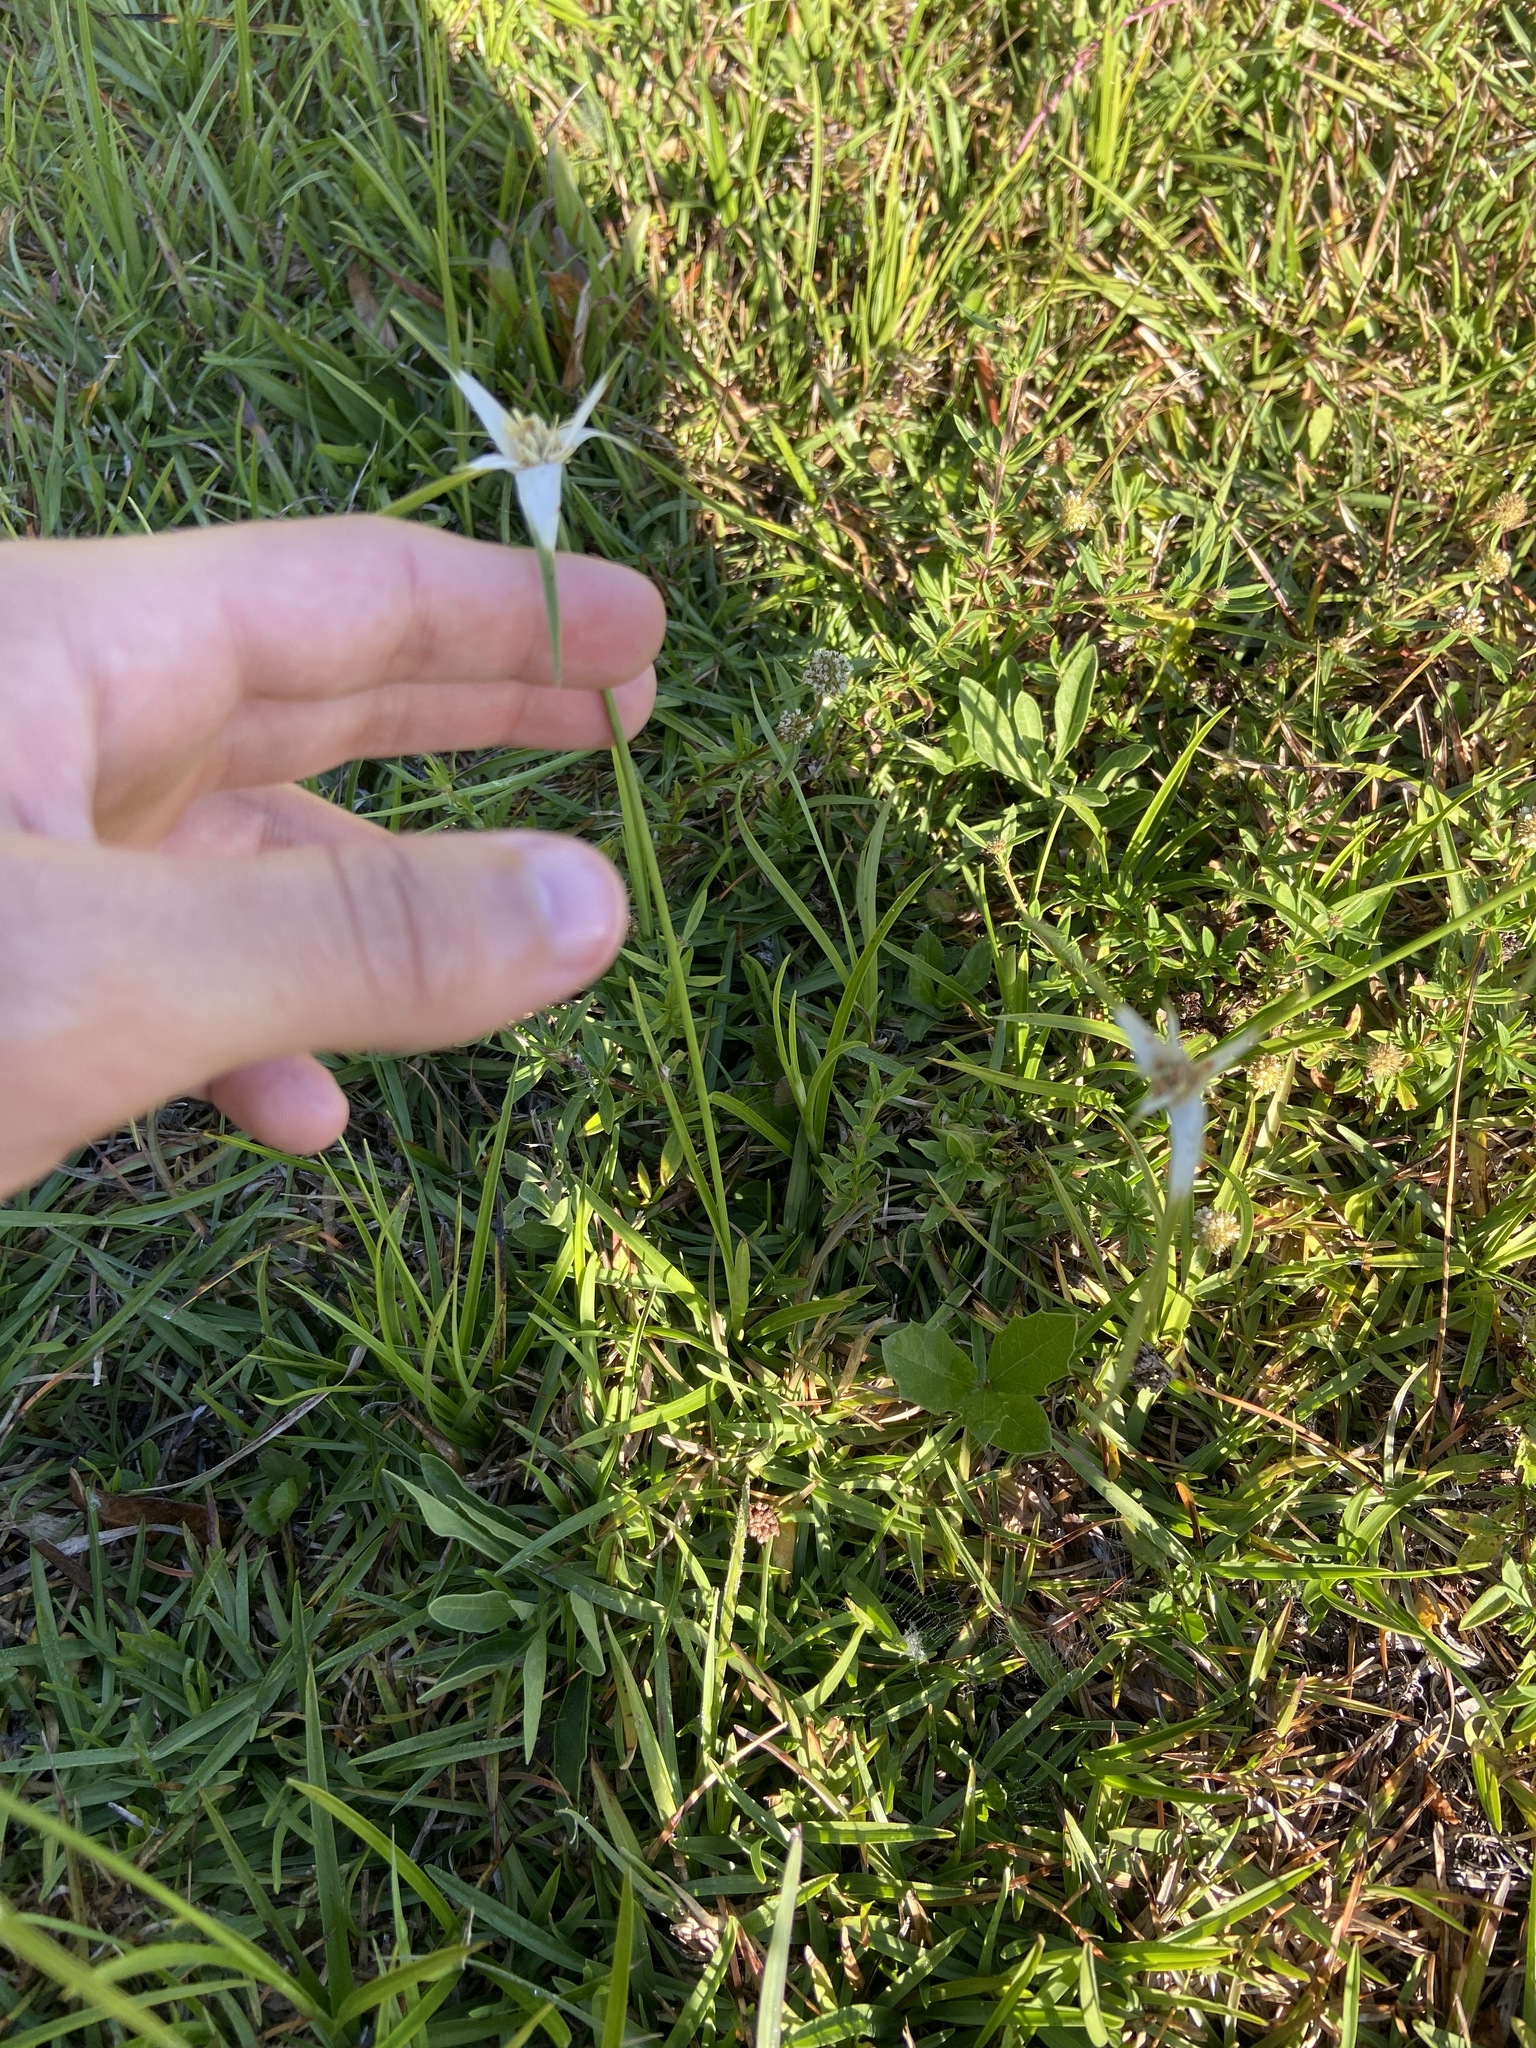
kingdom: Plantae
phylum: Tracheophyta
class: Liliopsida
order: Poales
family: Cyperaceae
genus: Rhynchospora
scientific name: Rhynchospora colorata
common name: Star sedge
